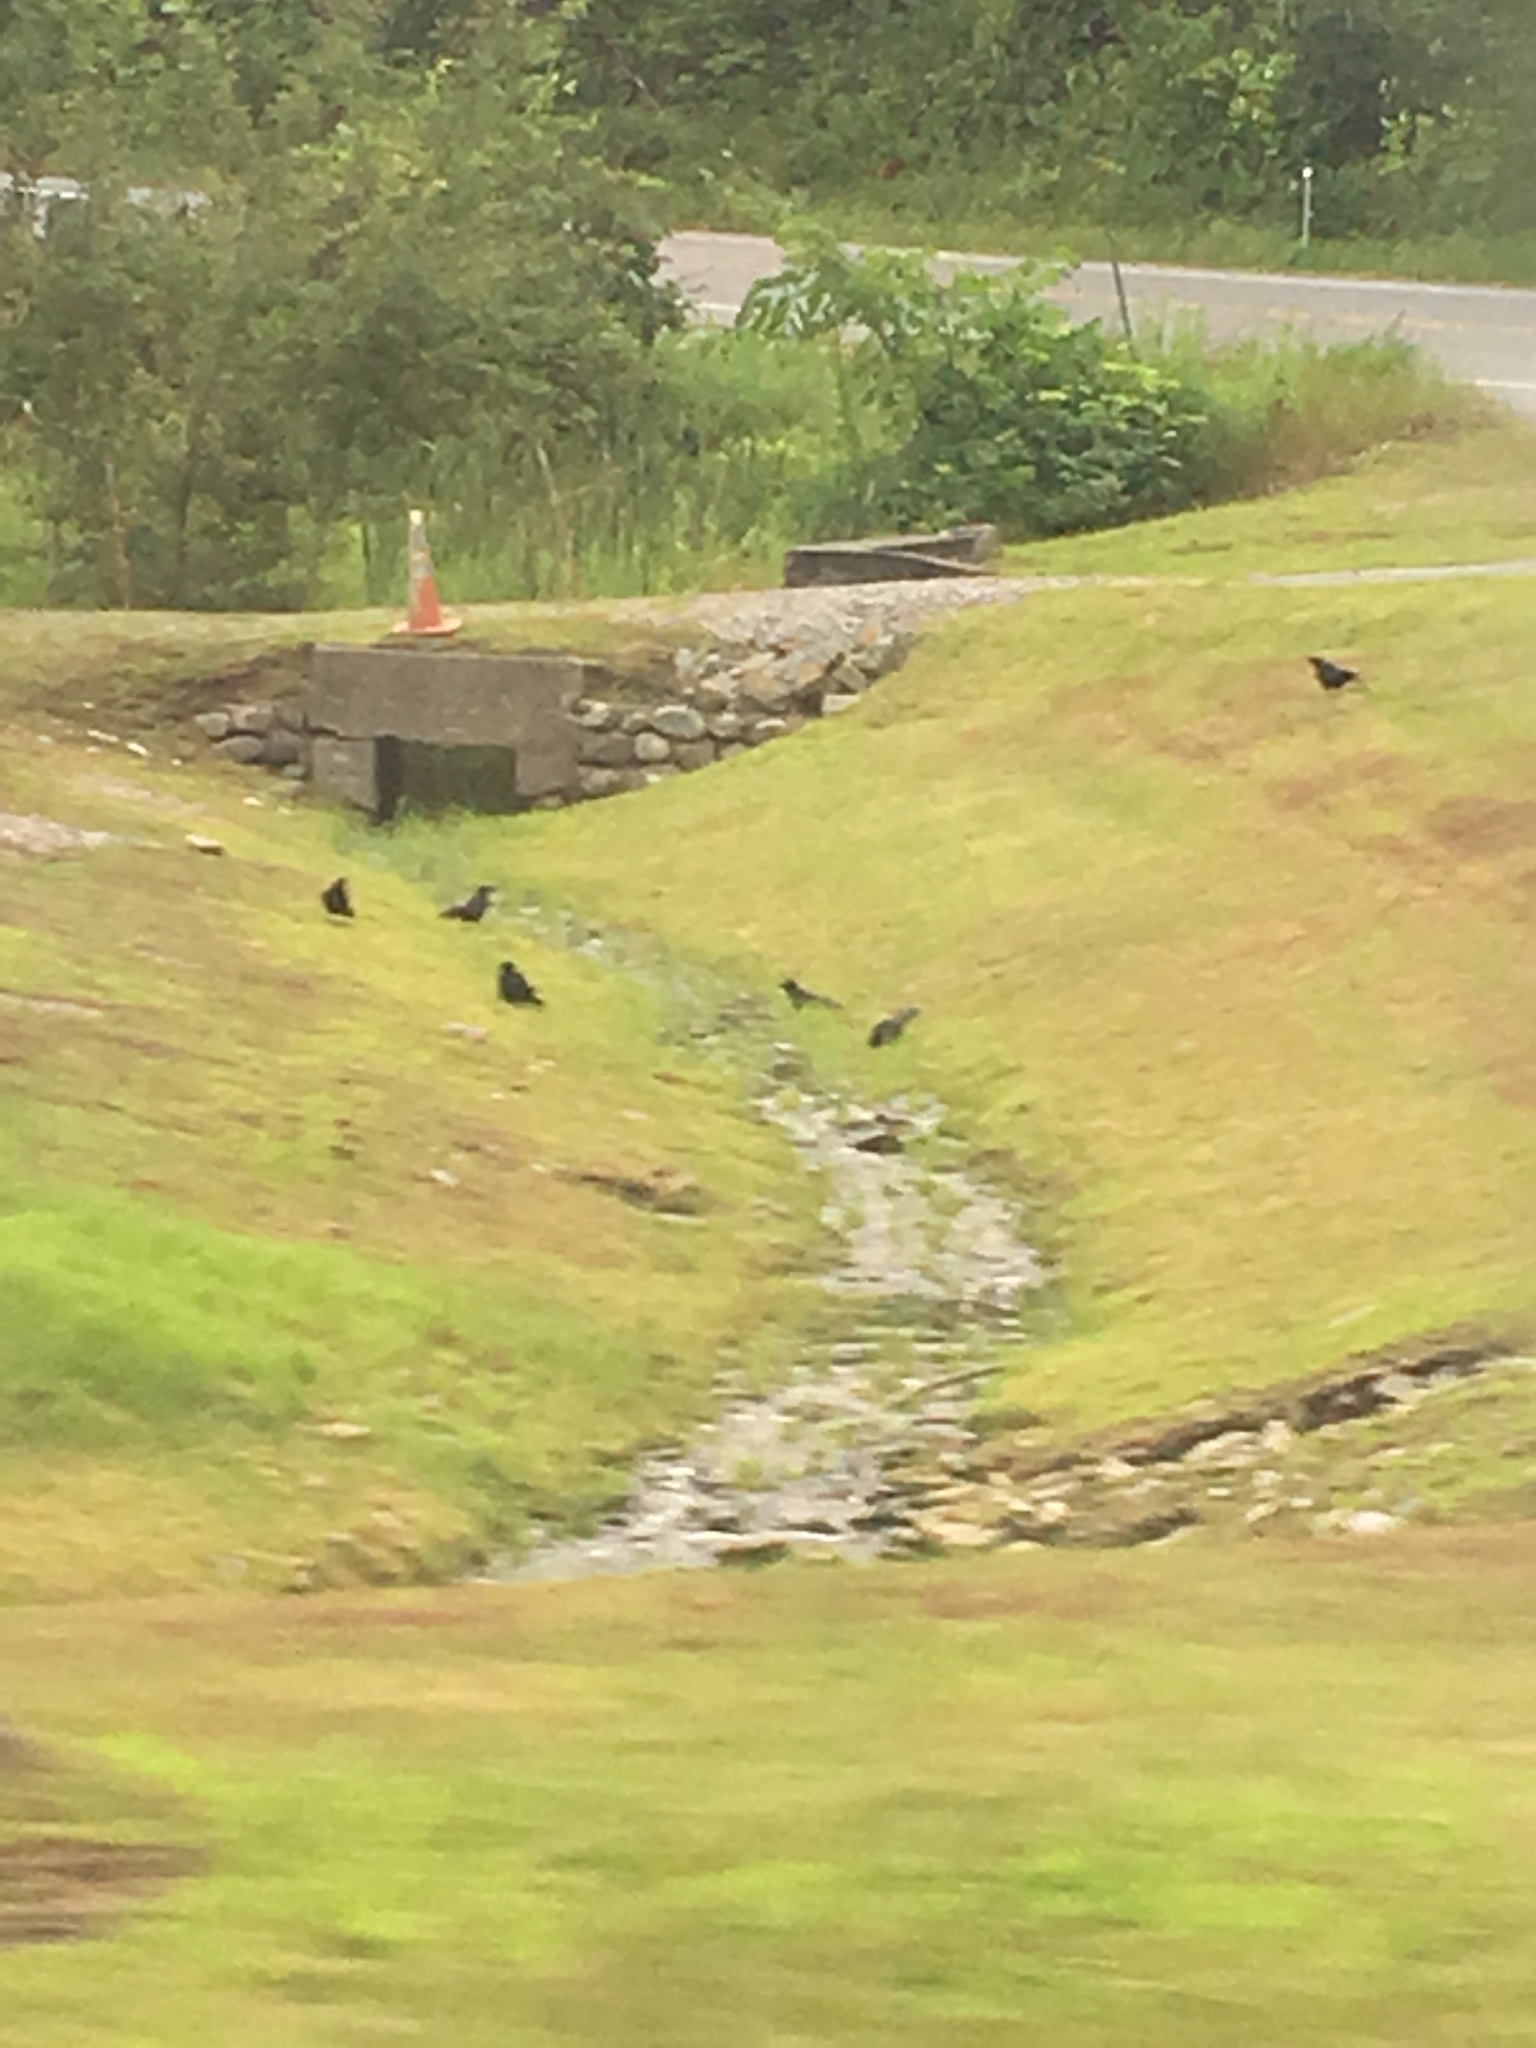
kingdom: Animalia
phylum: Chordata
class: Aves
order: Passeriformes
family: Corvidae
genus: Corvus
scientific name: Corvus
